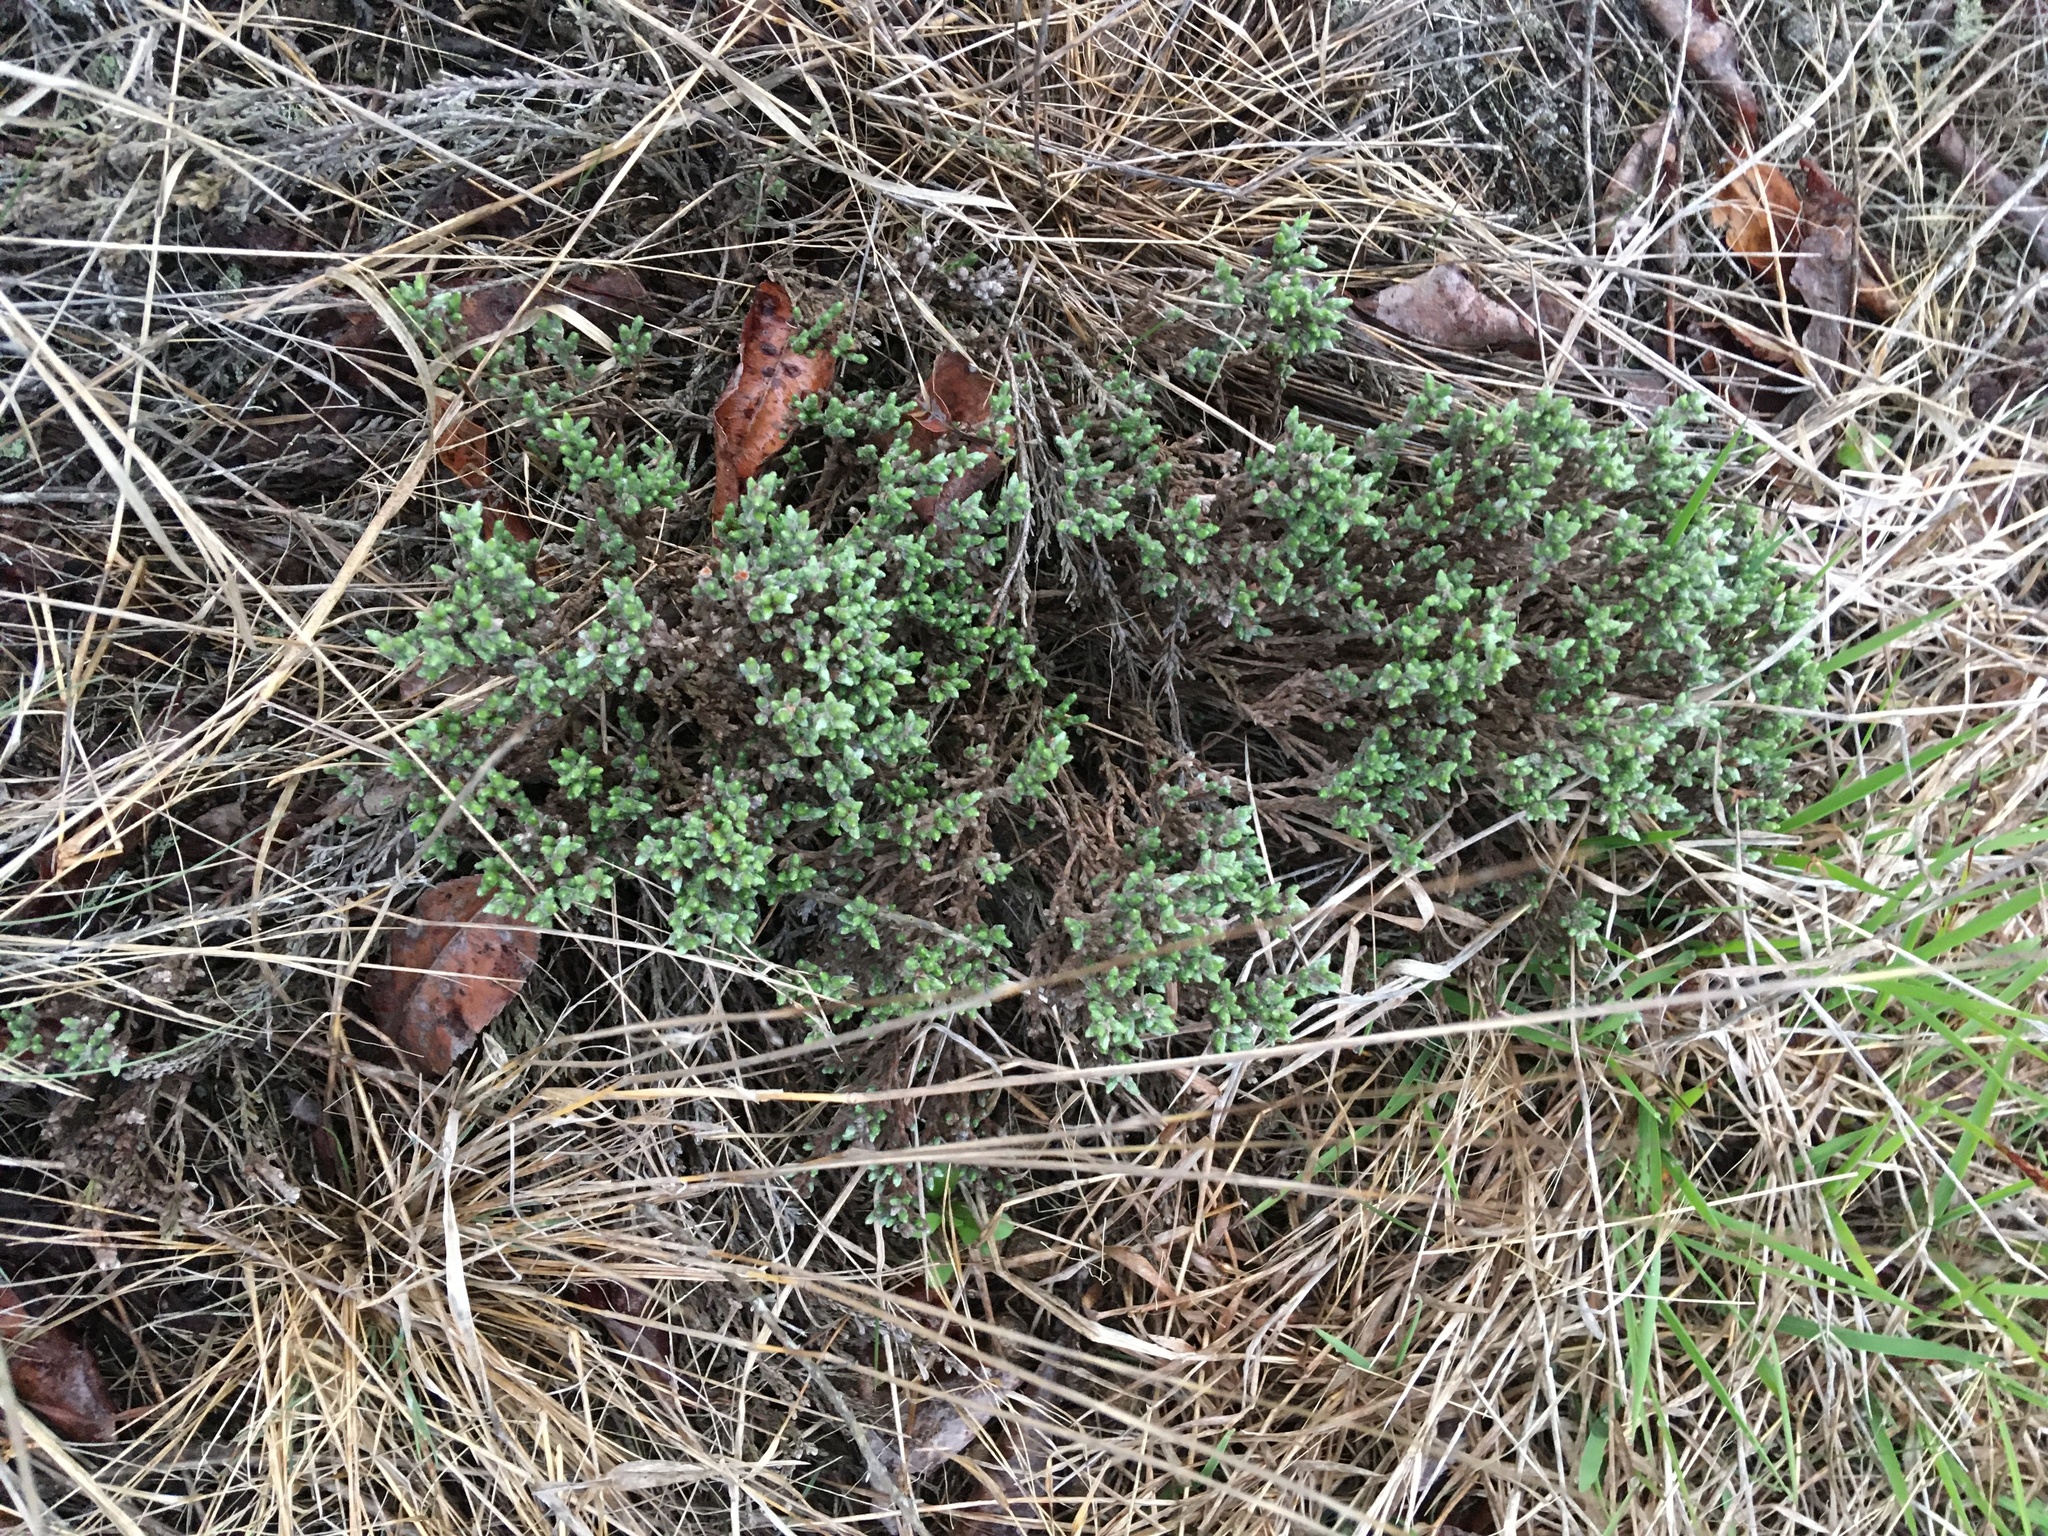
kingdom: Plantae
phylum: Tracheophyta
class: Magnoliopsida
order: Malvales
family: Cistaceae
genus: Hudsonia
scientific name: Hudsonia tomentosa
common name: Beach-heath
